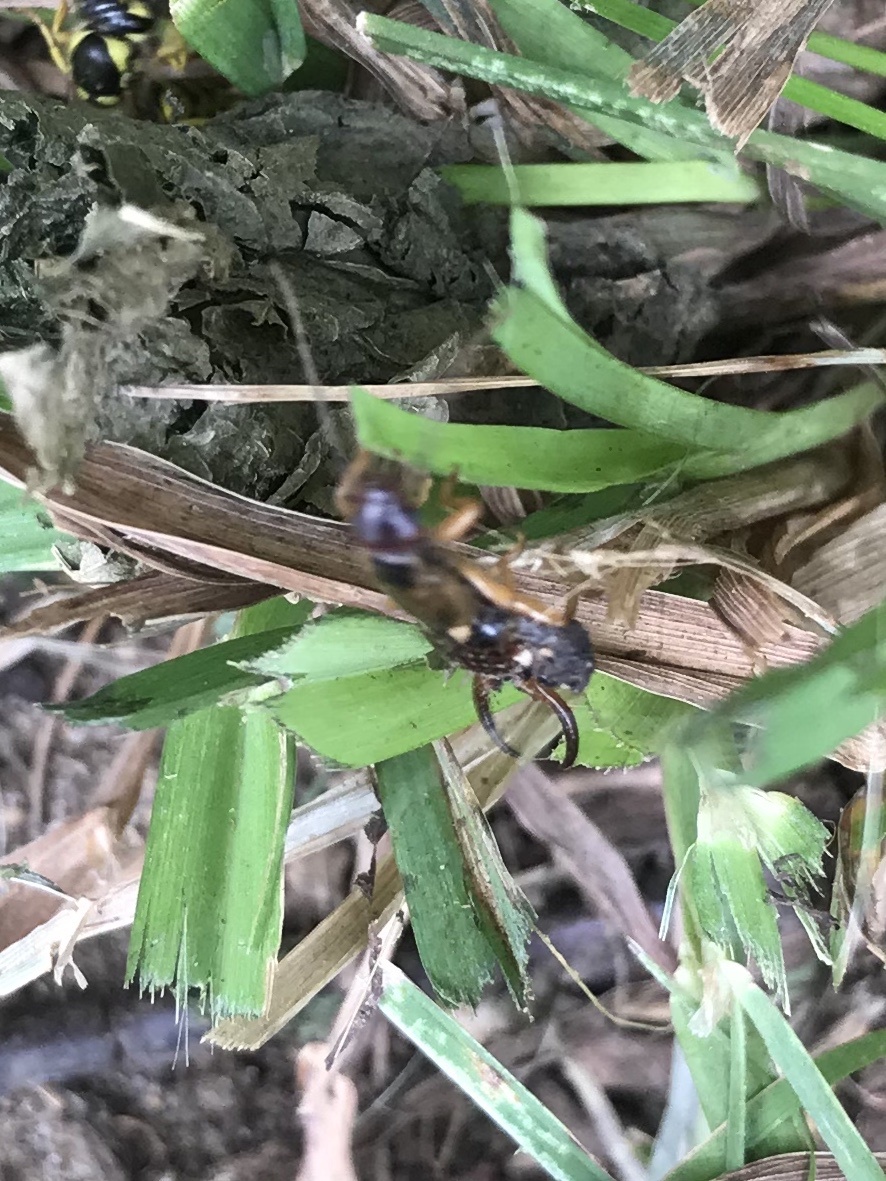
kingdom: Animalia
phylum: Arthropoda
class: Insecta
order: Dermaptera
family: Forficulidae
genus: Forficula
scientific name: Forficula
